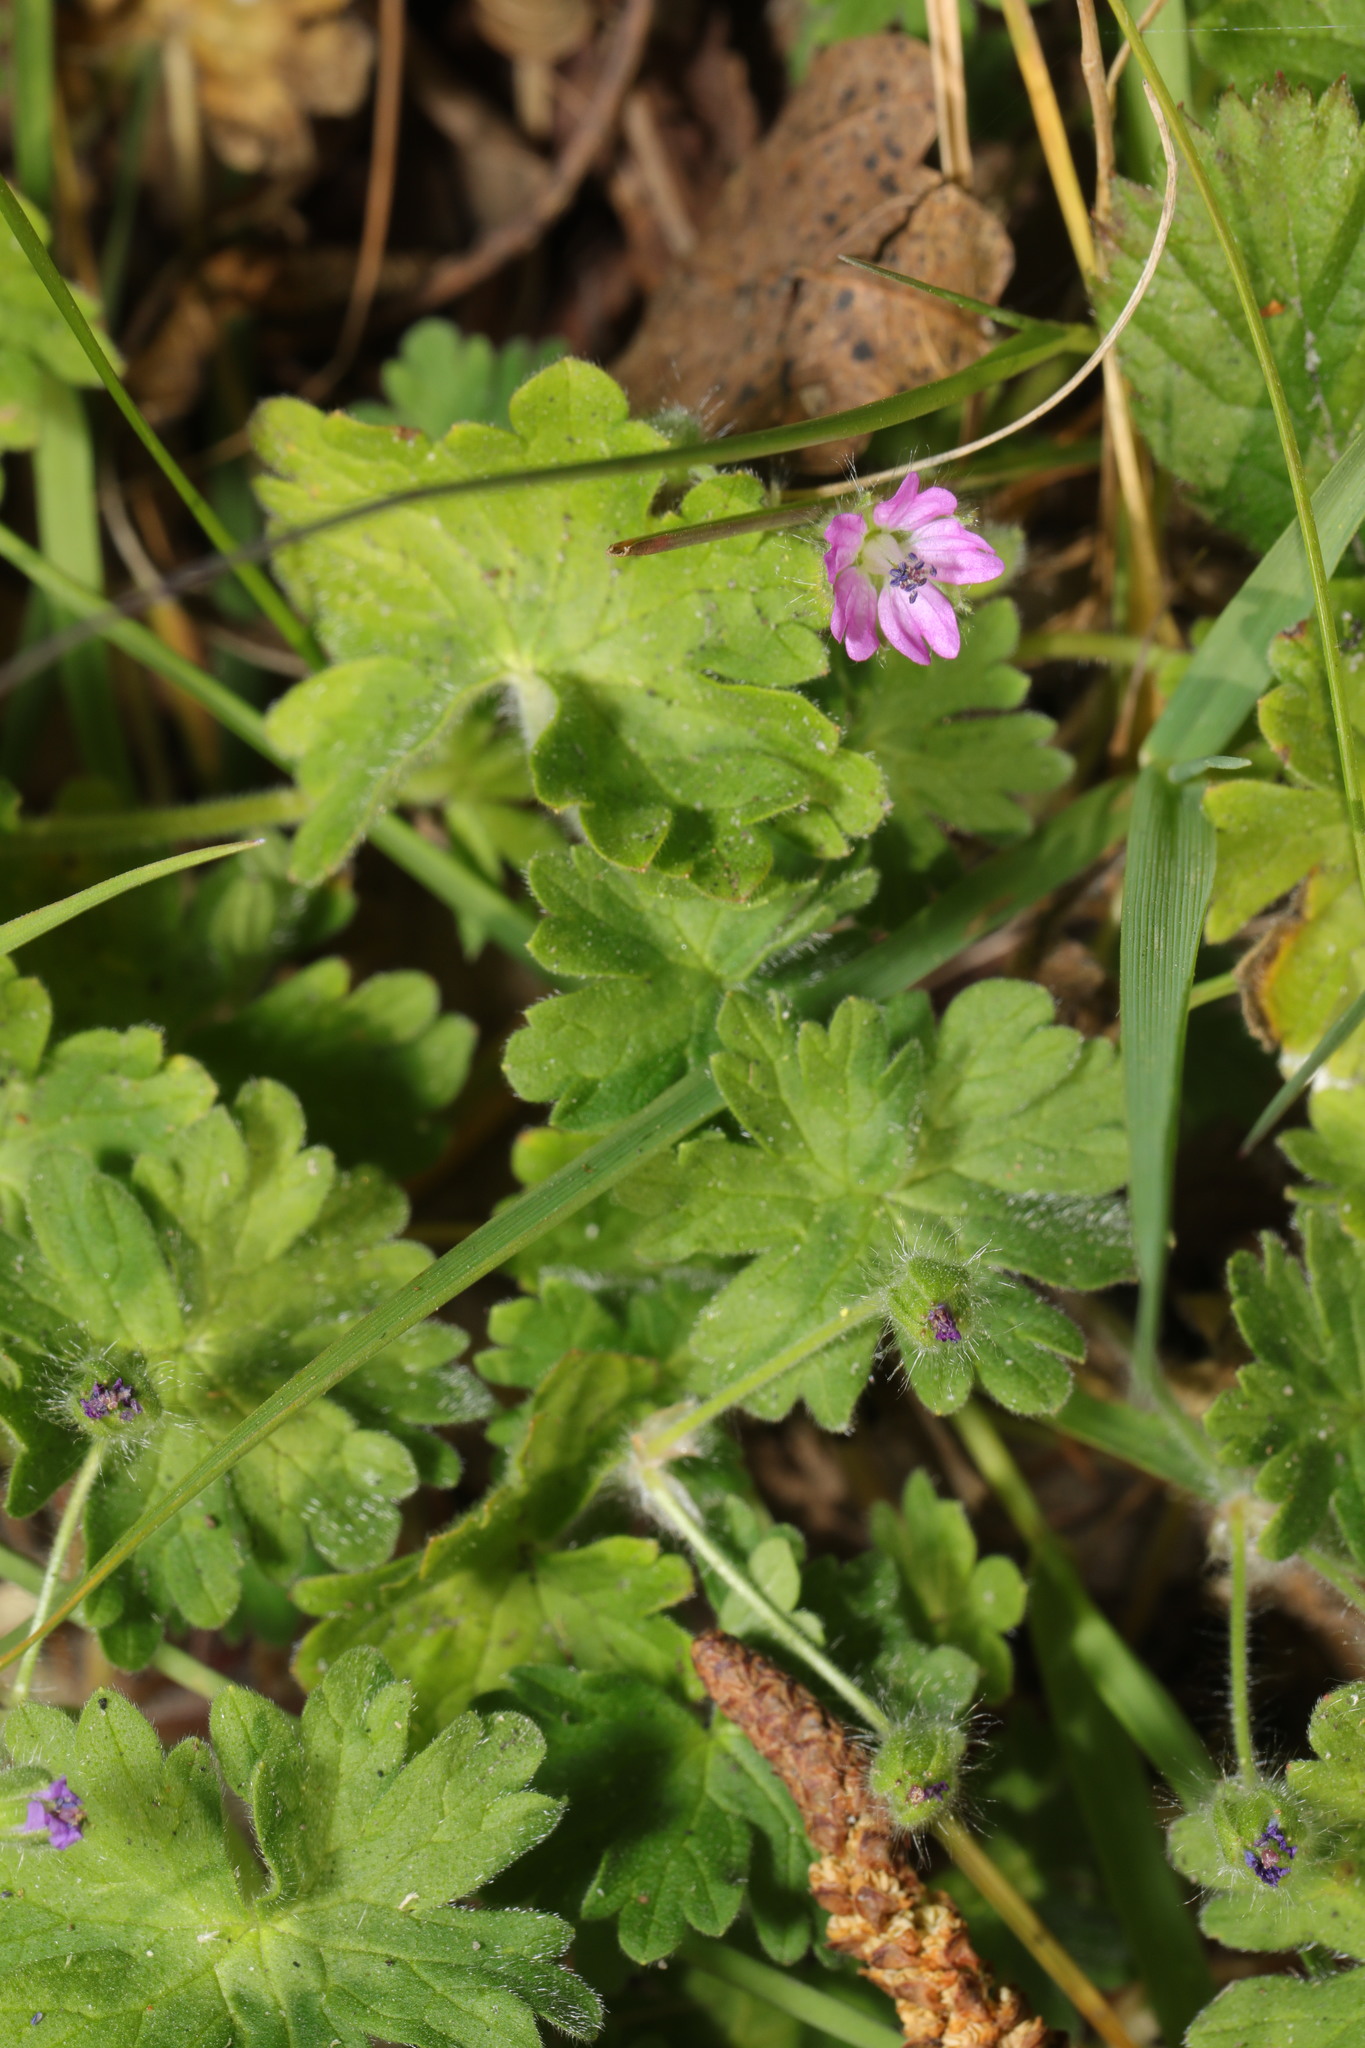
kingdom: Plantae
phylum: Tracheophyta
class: Magnoliopsida
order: Geraniales
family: Geraniaceae
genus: Geranium
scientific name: Geranium molle
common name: Dove's-foot crane's-bill
